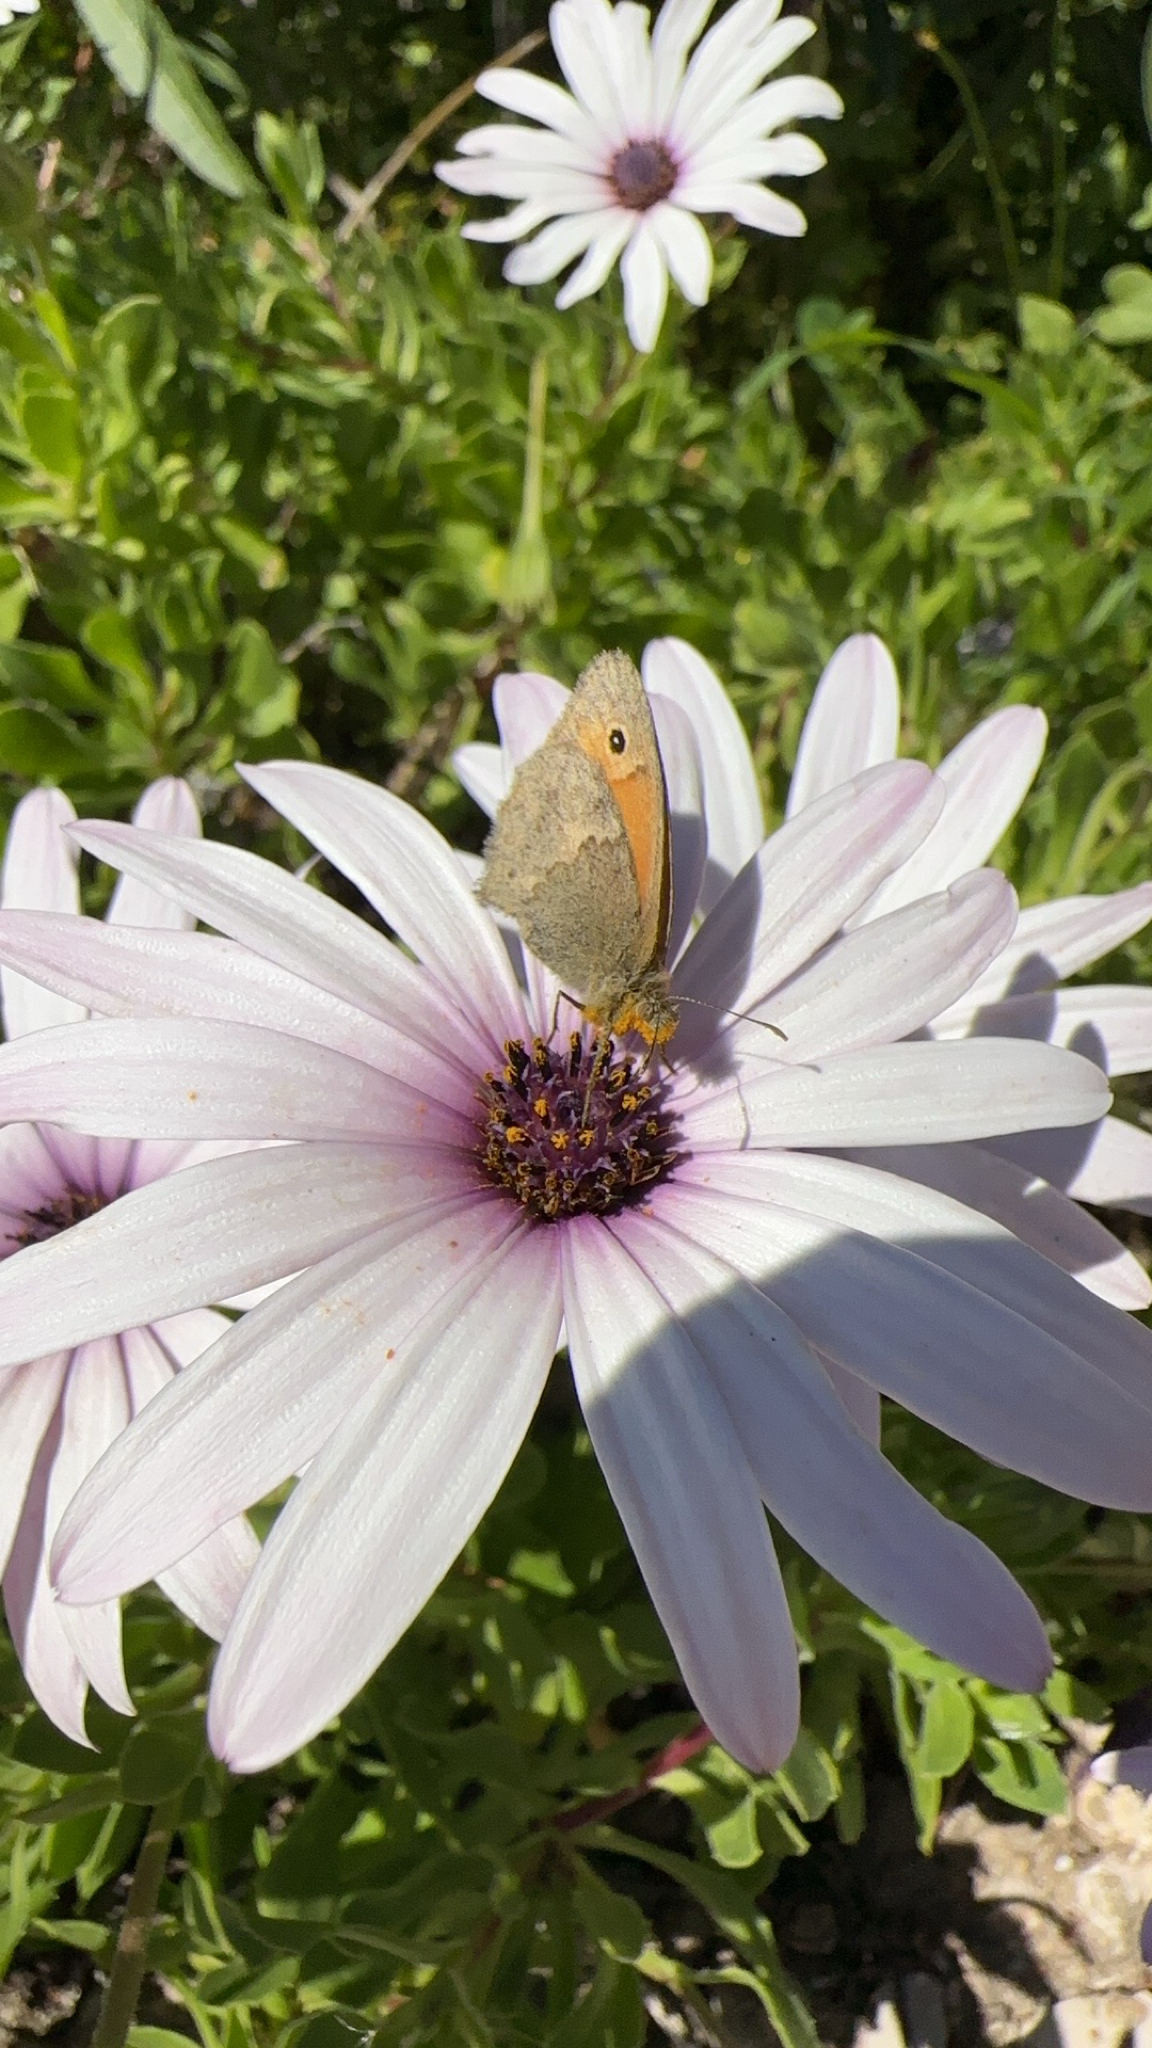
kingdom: Animalia
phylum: Arthropoda
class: Insecta
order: Lepidoptera
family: Nymphalidae
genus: Coenonympha
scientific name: Coenonympha pamphilus
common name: Small heath
